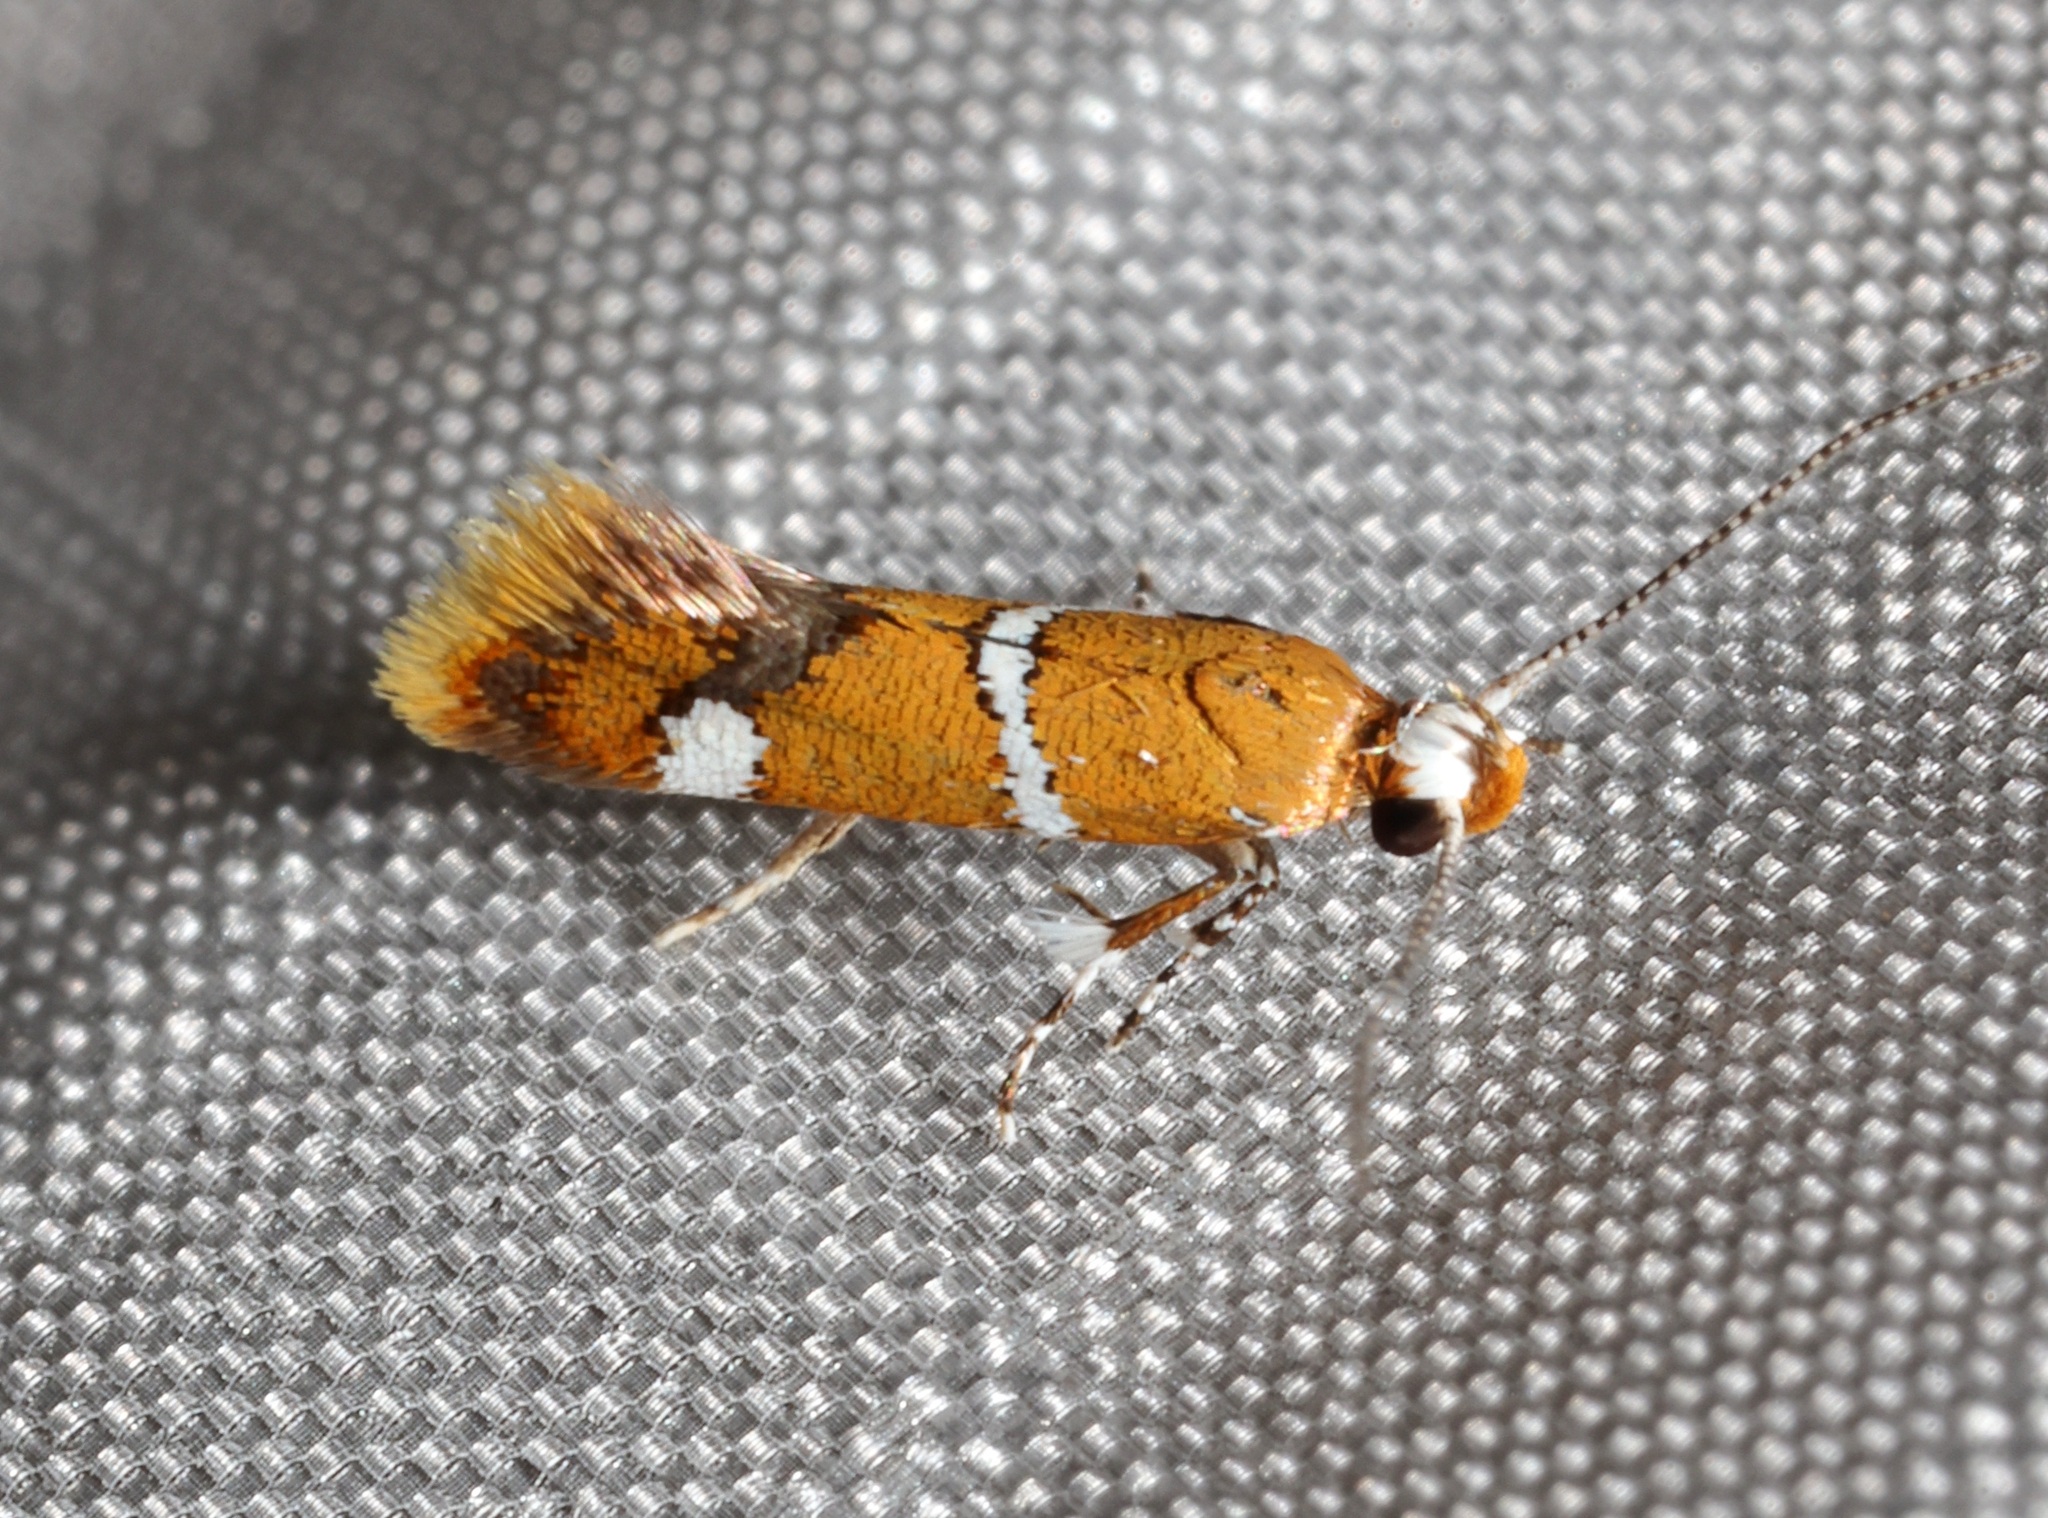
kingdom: Animalia
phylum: Arthropoda
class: Insecta
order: Lepidoptera
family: Oecophoridae
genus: Promalactis
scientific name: Promalactis albisquama
